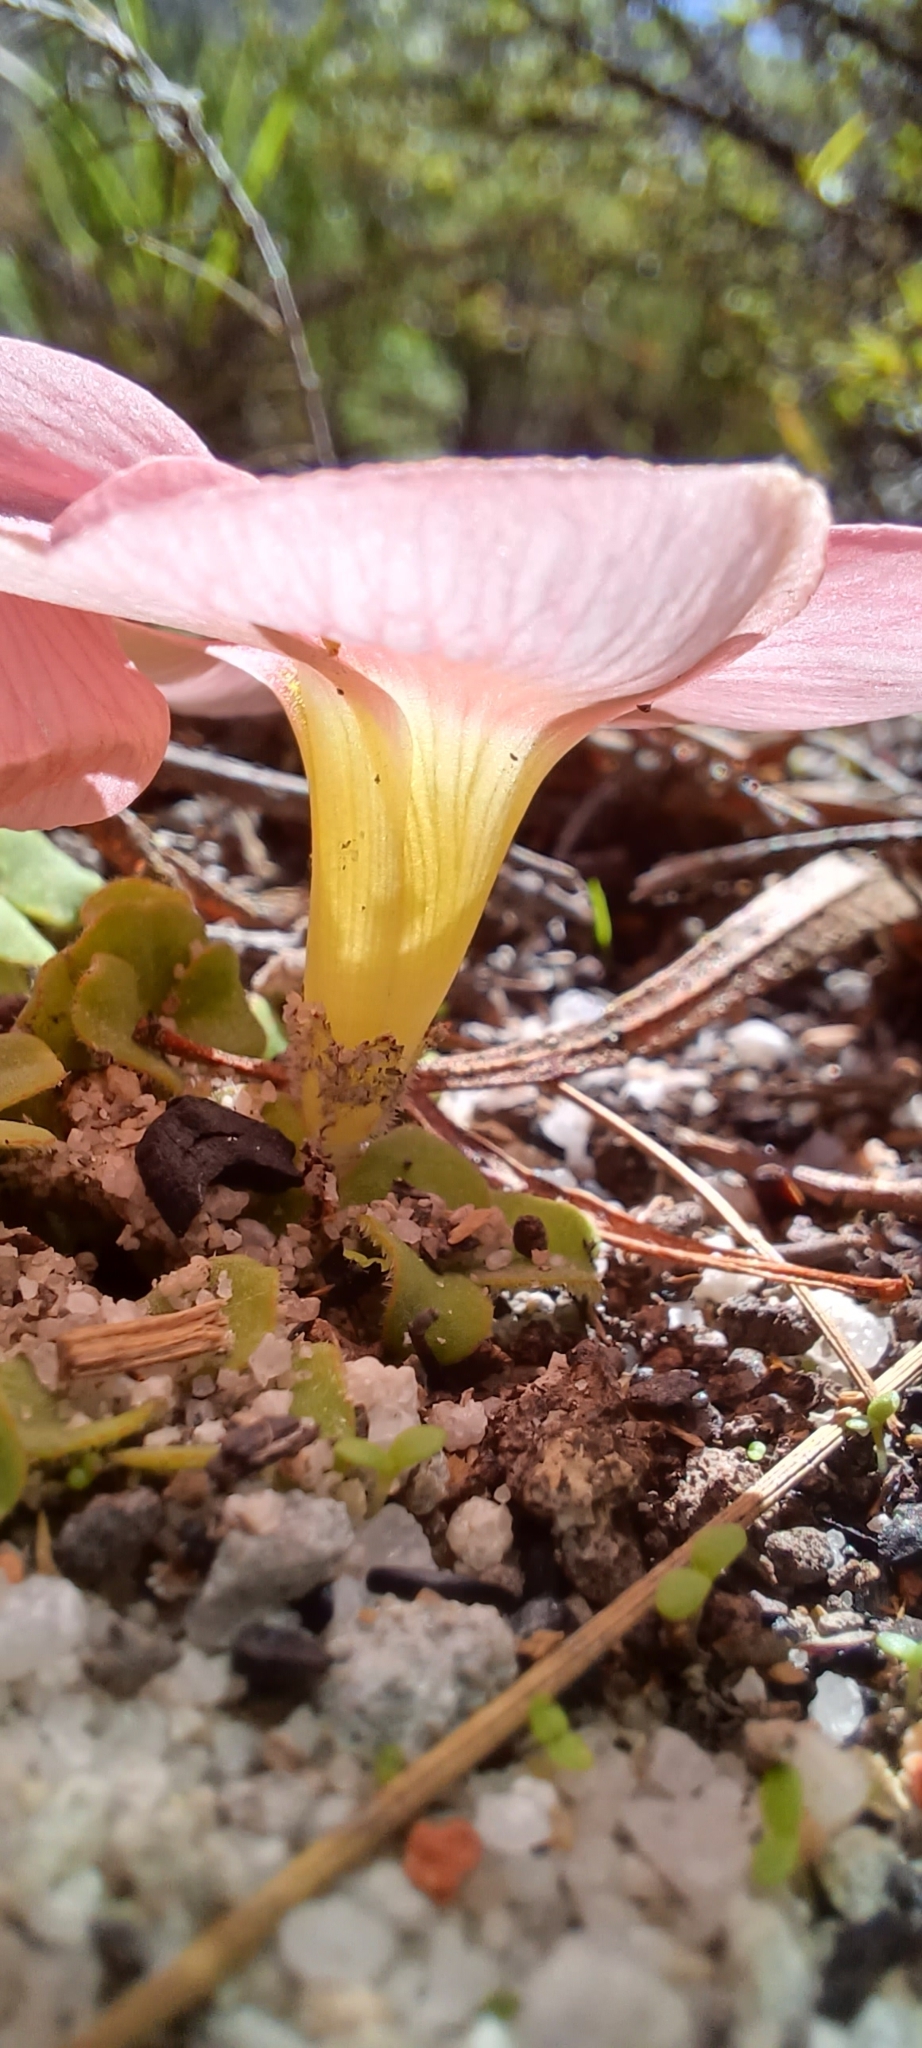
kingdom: Plantae
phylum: Tracheophyta
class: Magnoliopsida
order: Oxalidales
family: Oxalidaceae
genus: Oxalis
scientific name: Oxalis pulchella
